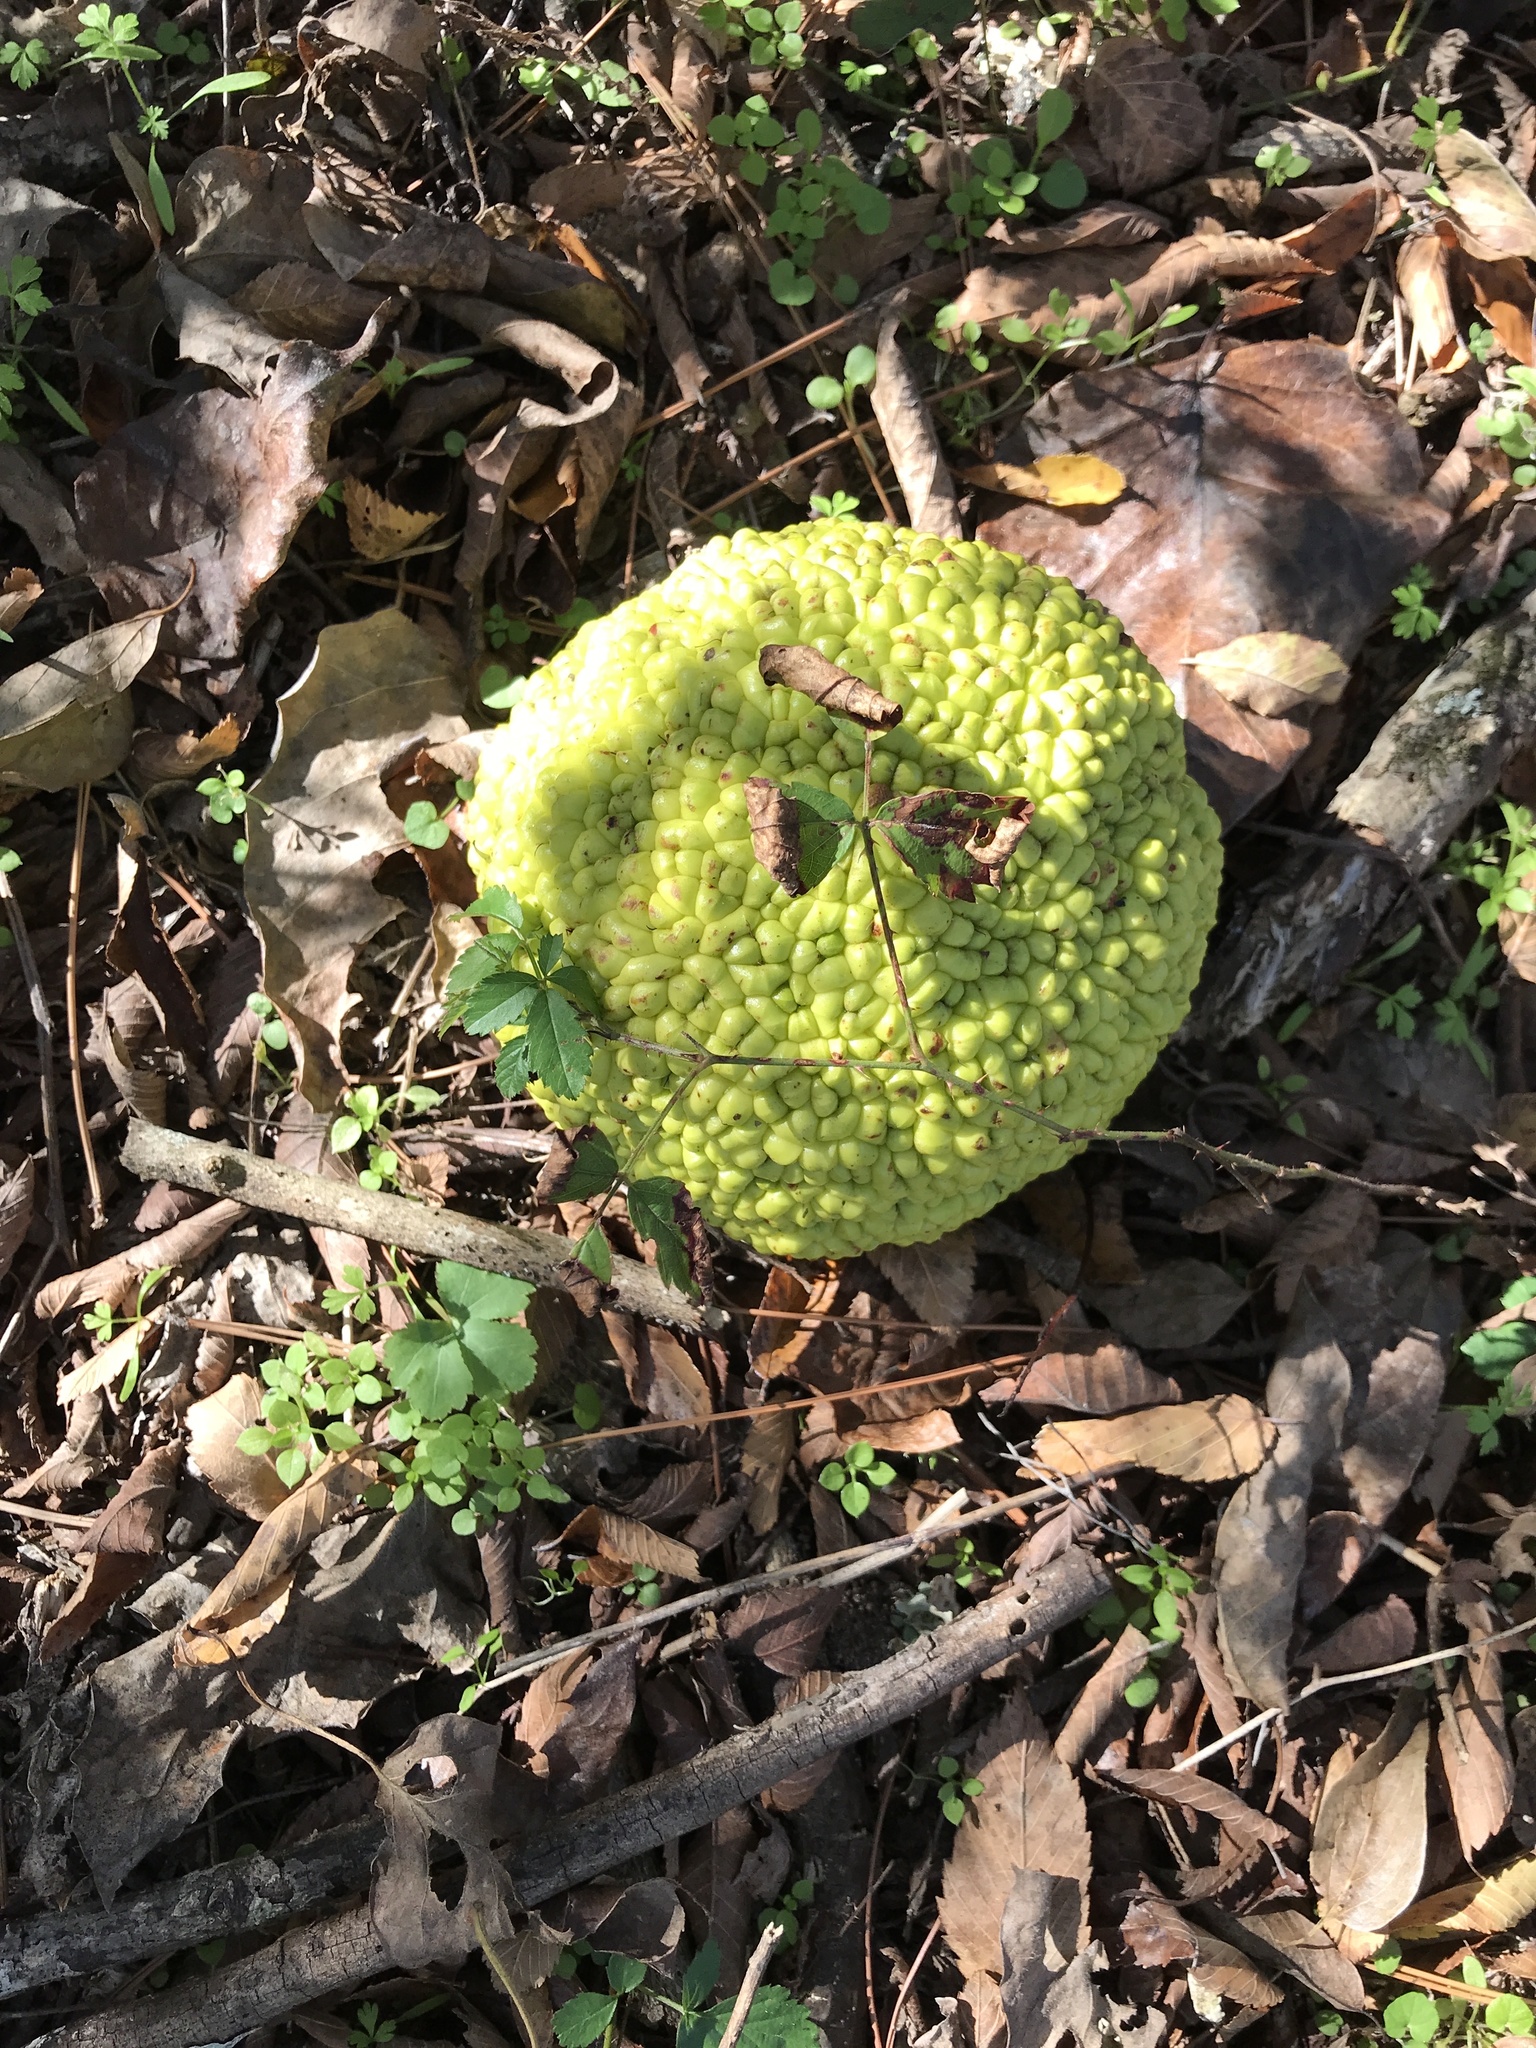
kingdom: Plantae
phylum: Tracheophyta
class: Magnoliopsida
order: Rosales
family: Moraceae
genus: Maclura
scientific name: Maclura pomifera
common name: Osage-orange
